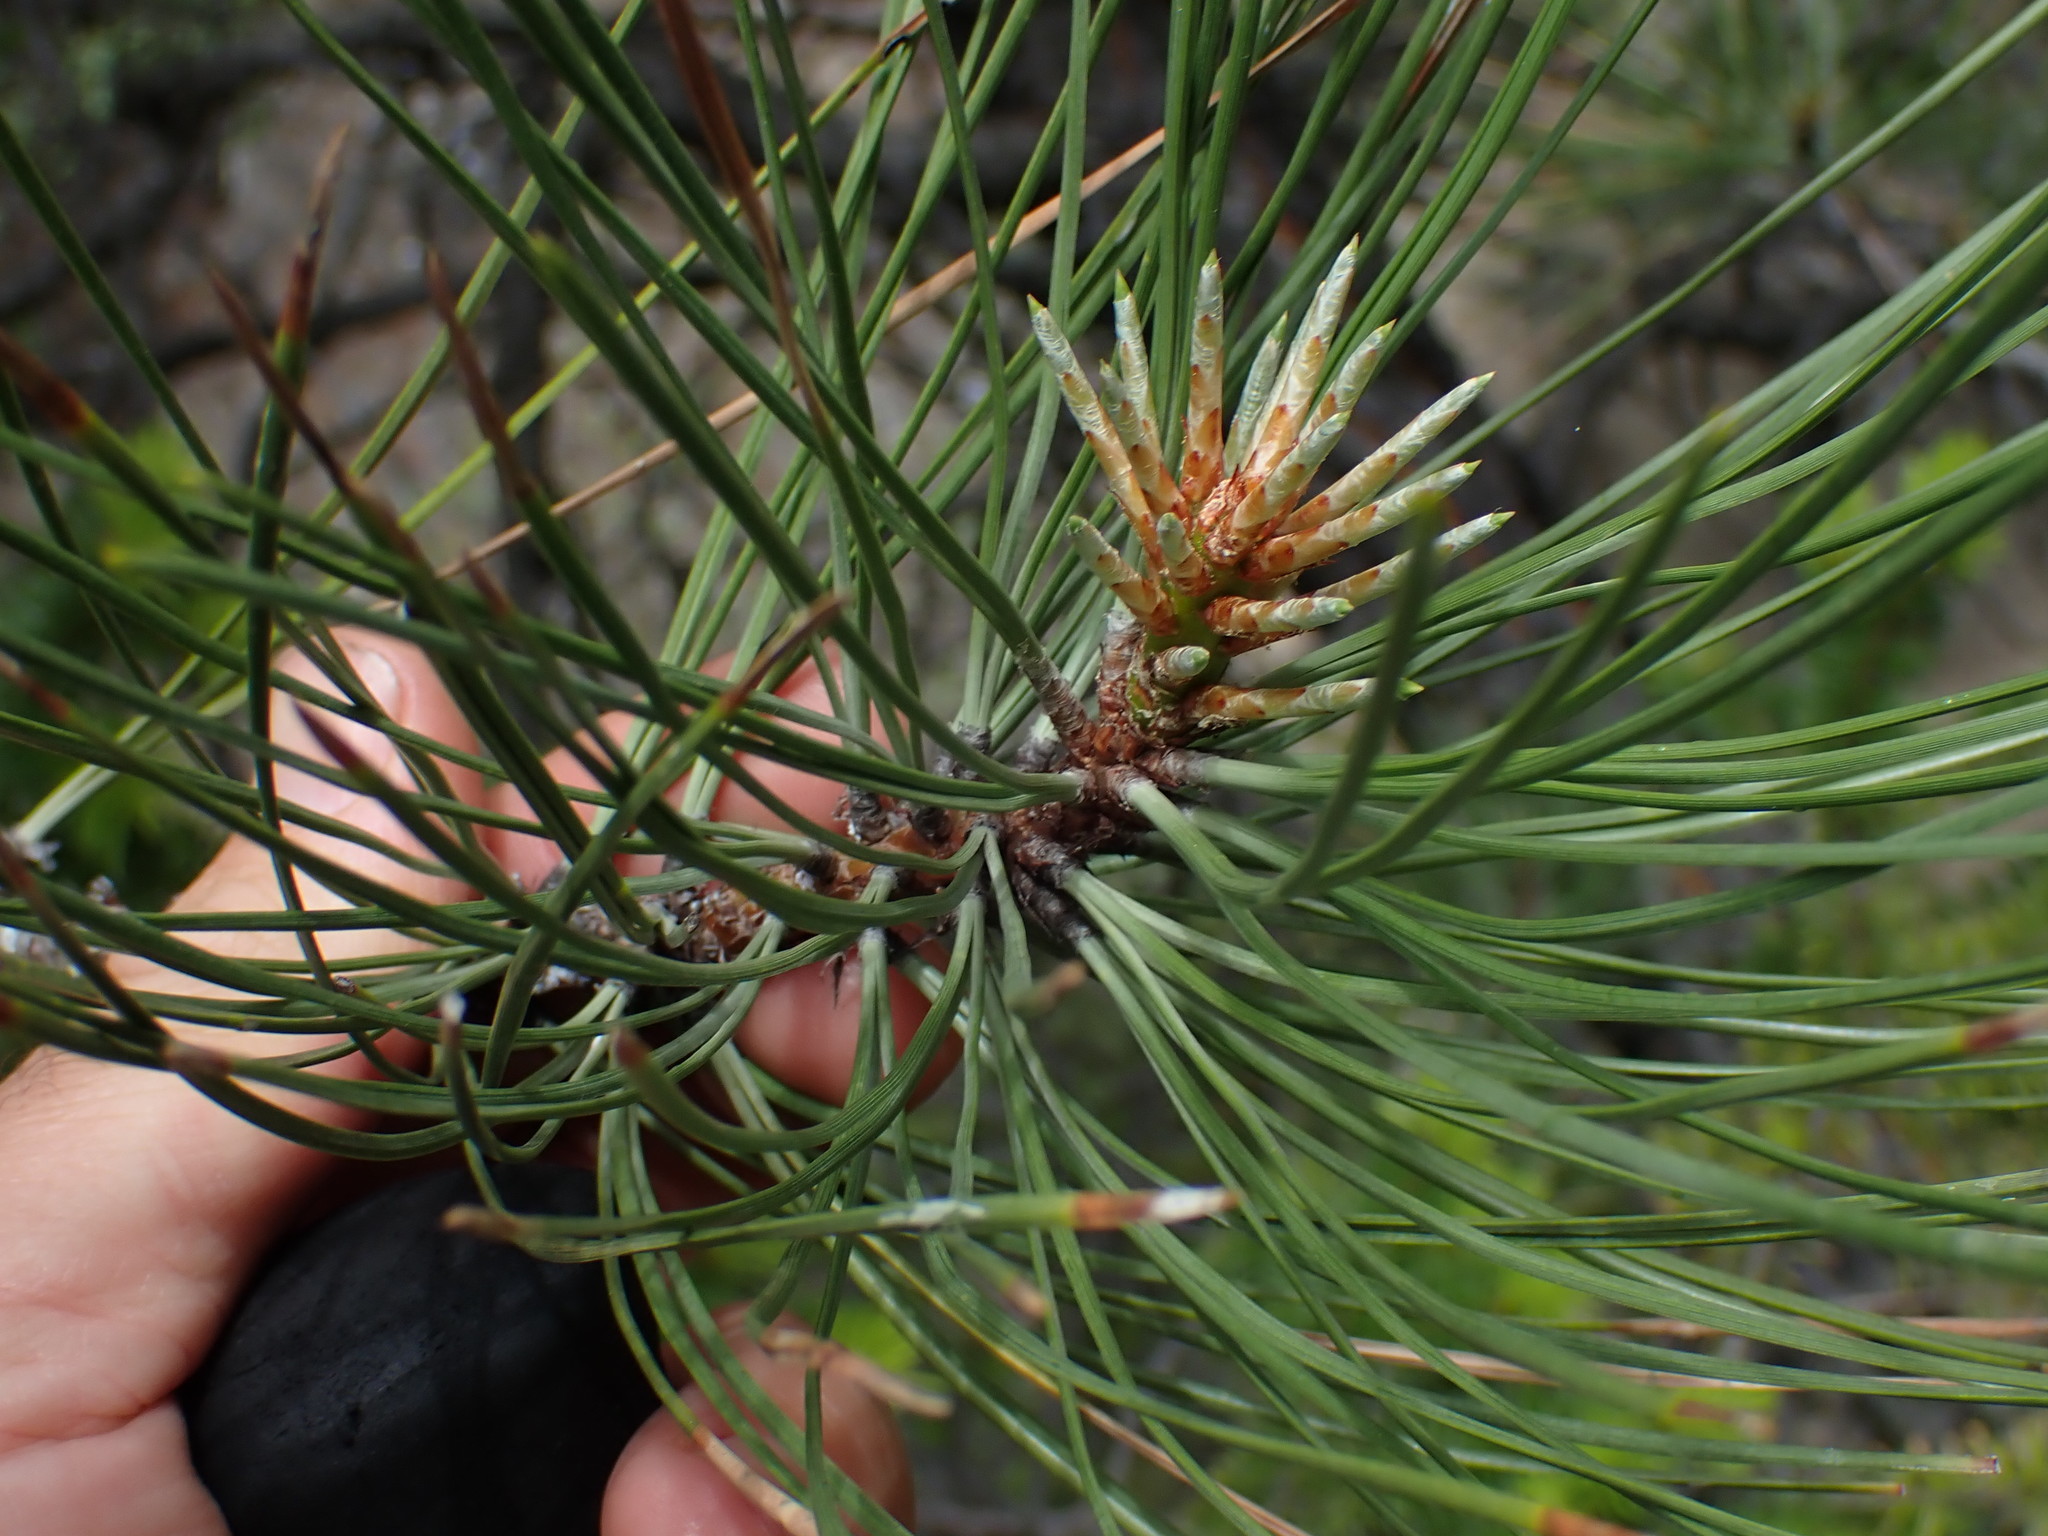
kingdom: Plantae
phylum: Tracheophyta
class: Pinopsida
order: Pinales
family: Pinaceae
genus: Pinus
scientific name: Pinus ponderosa
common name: Western yellow-pine
